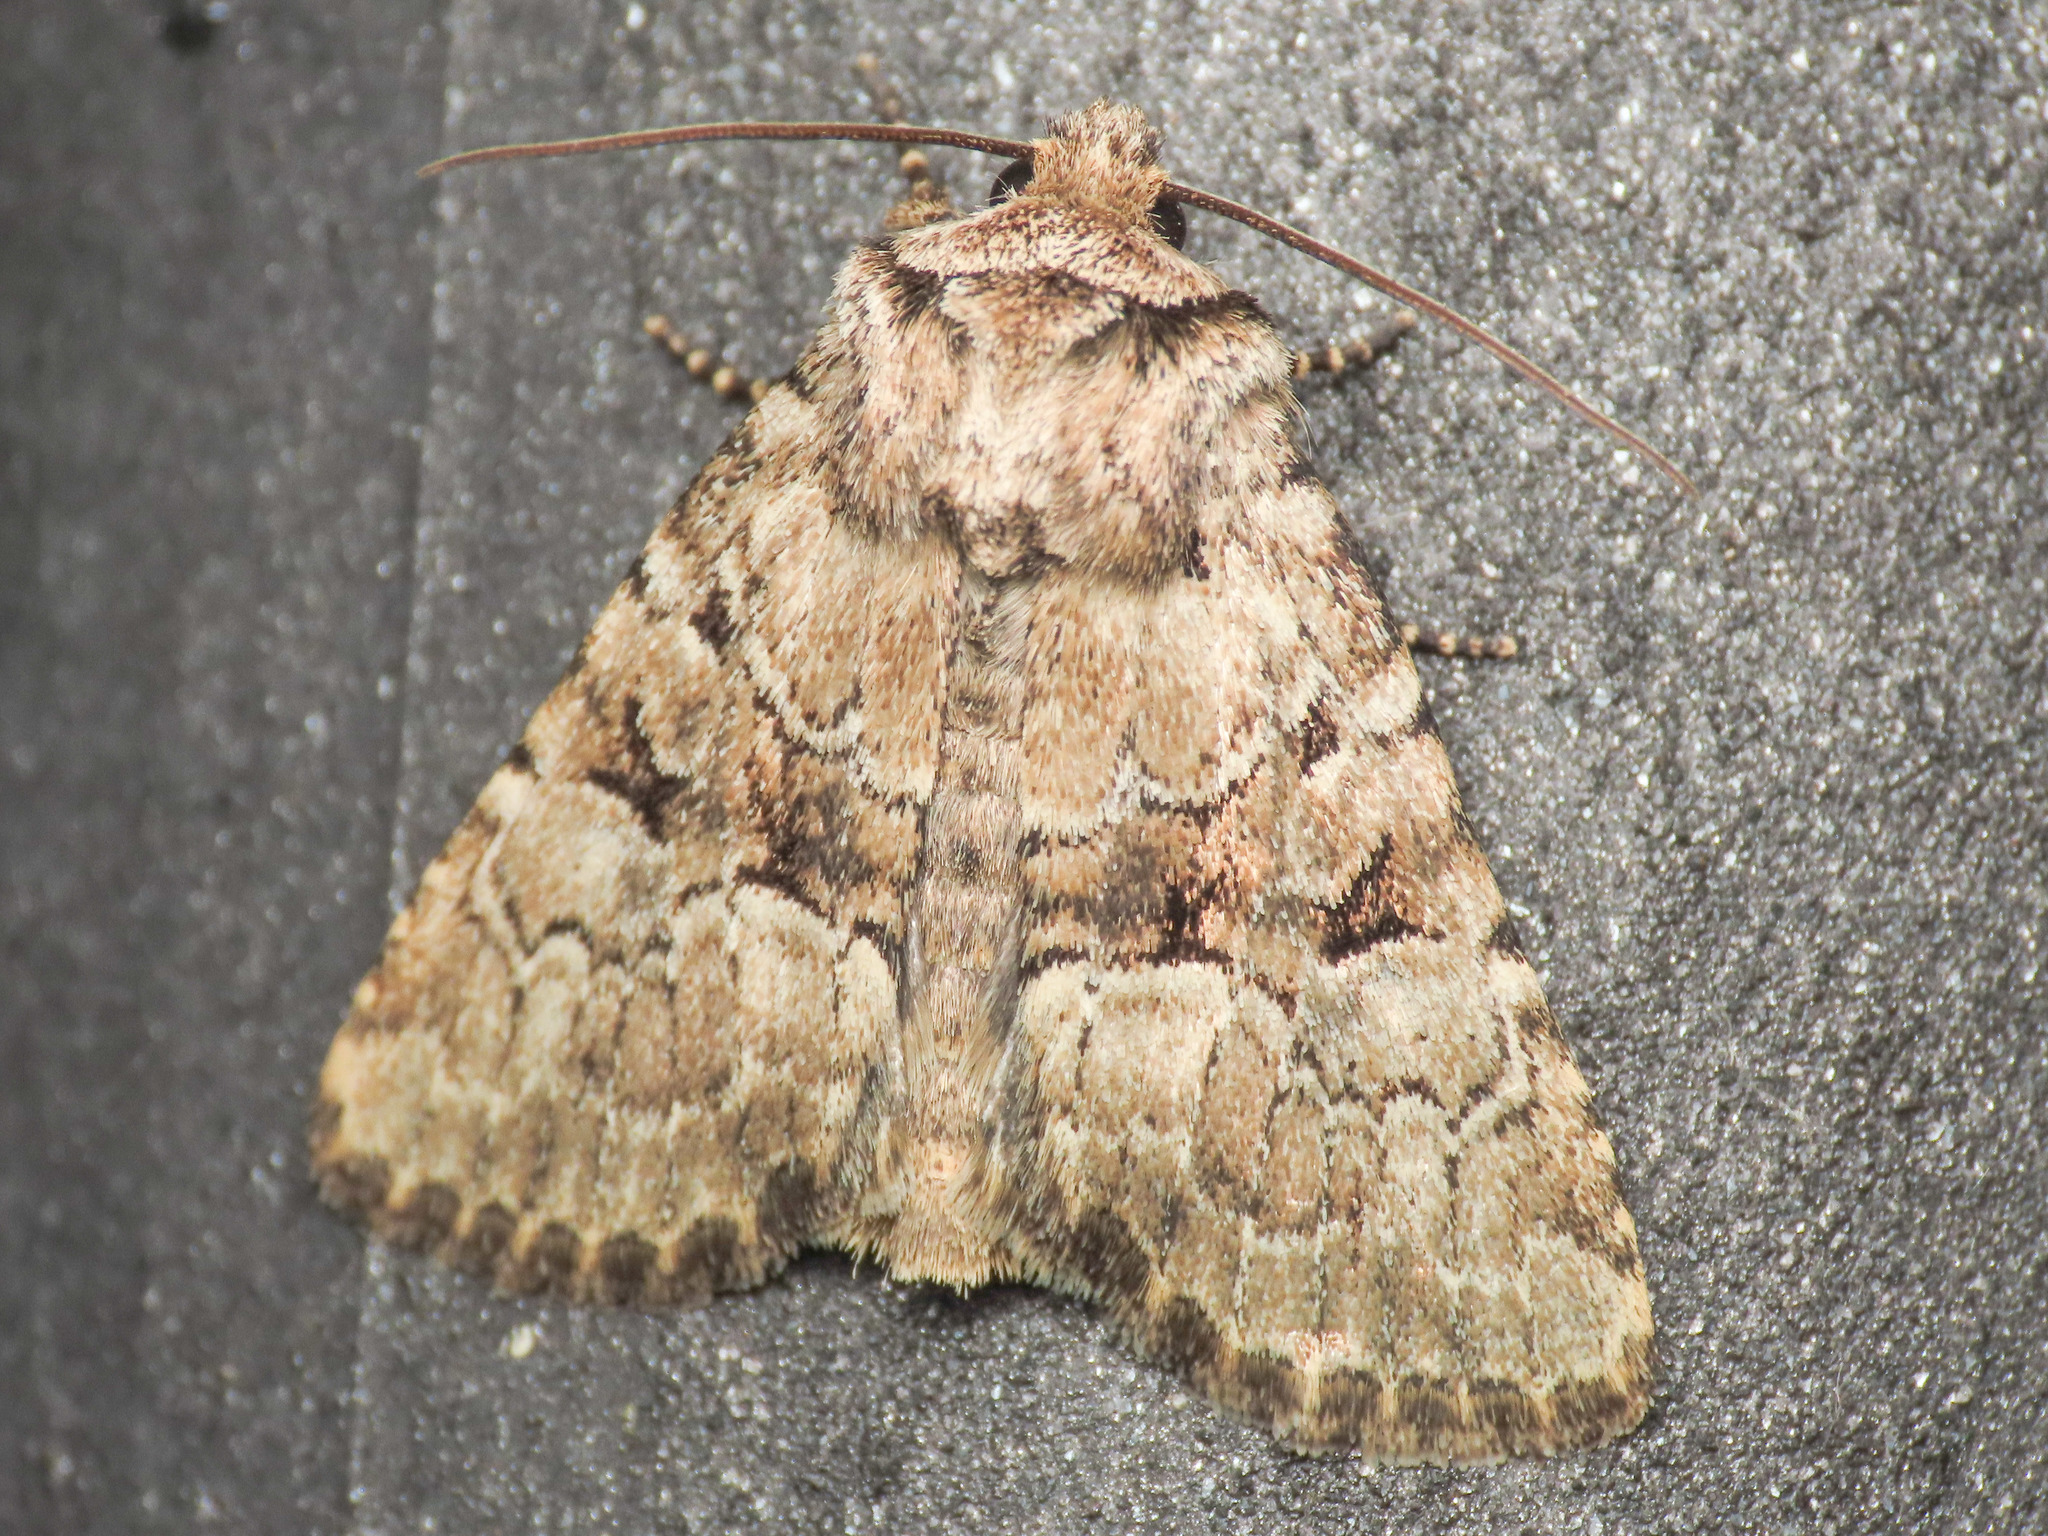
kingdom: Animalia
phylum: Arthropoda
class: Insecta
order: Lepidoptera
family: Noctuidae
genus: Lasionycta
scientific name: Lasionycta Clemathada calberlai
